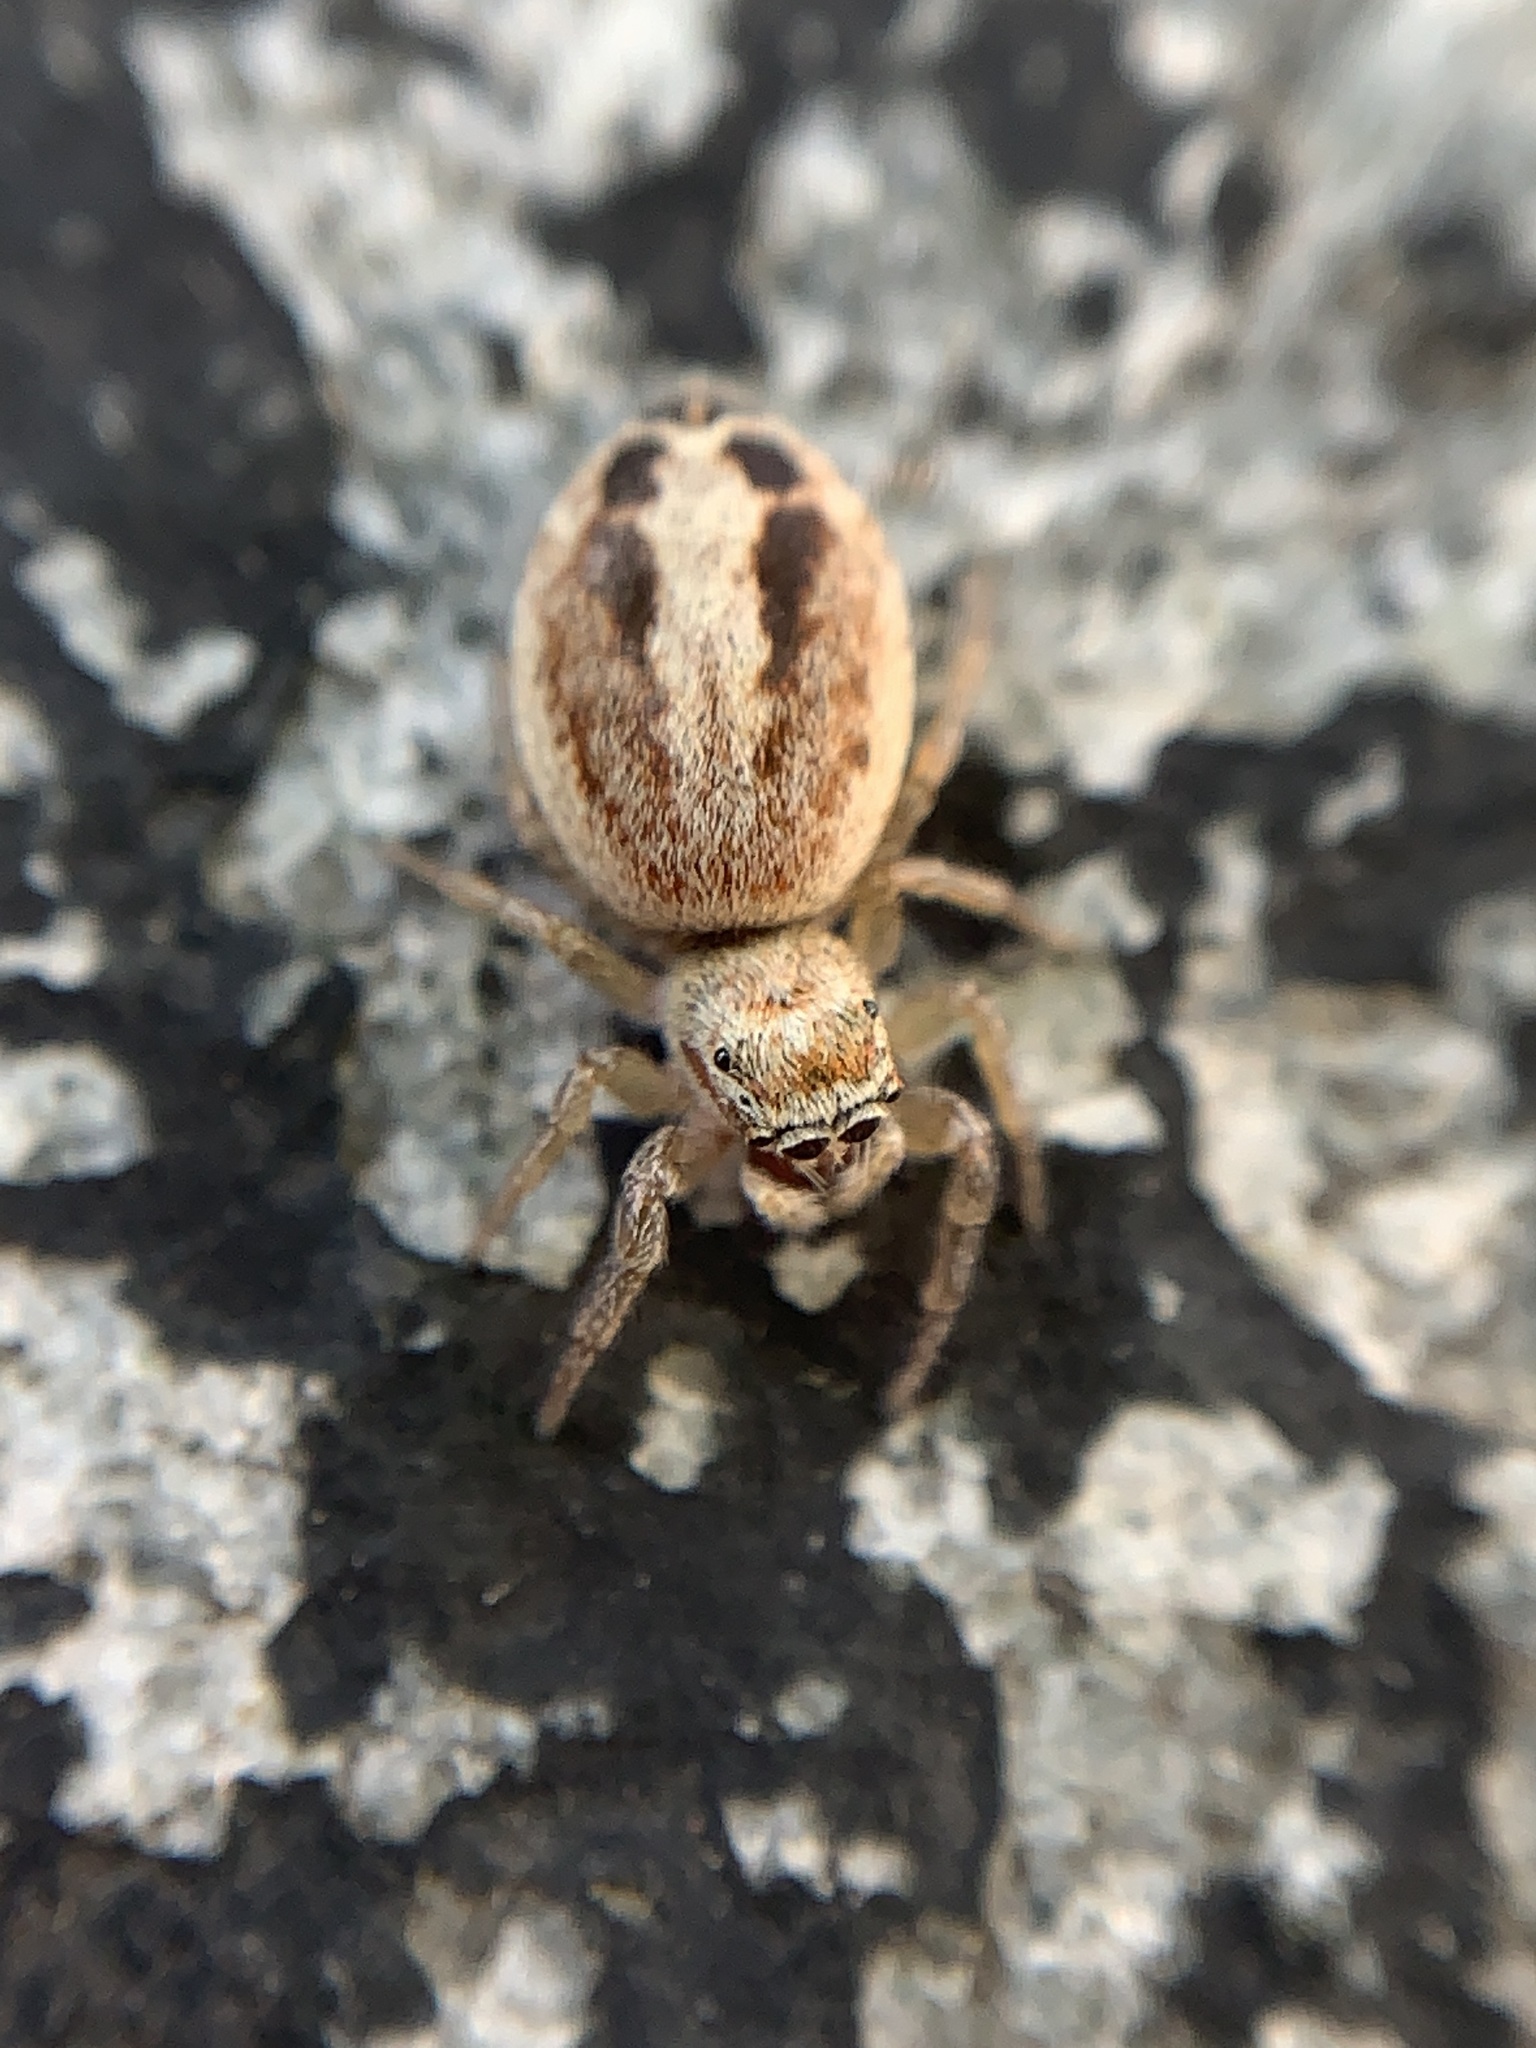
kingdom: Animalia
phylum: Arthropoda
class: Arachnida
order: Araneae
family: Salticidae
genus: Icius
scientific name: Icius
